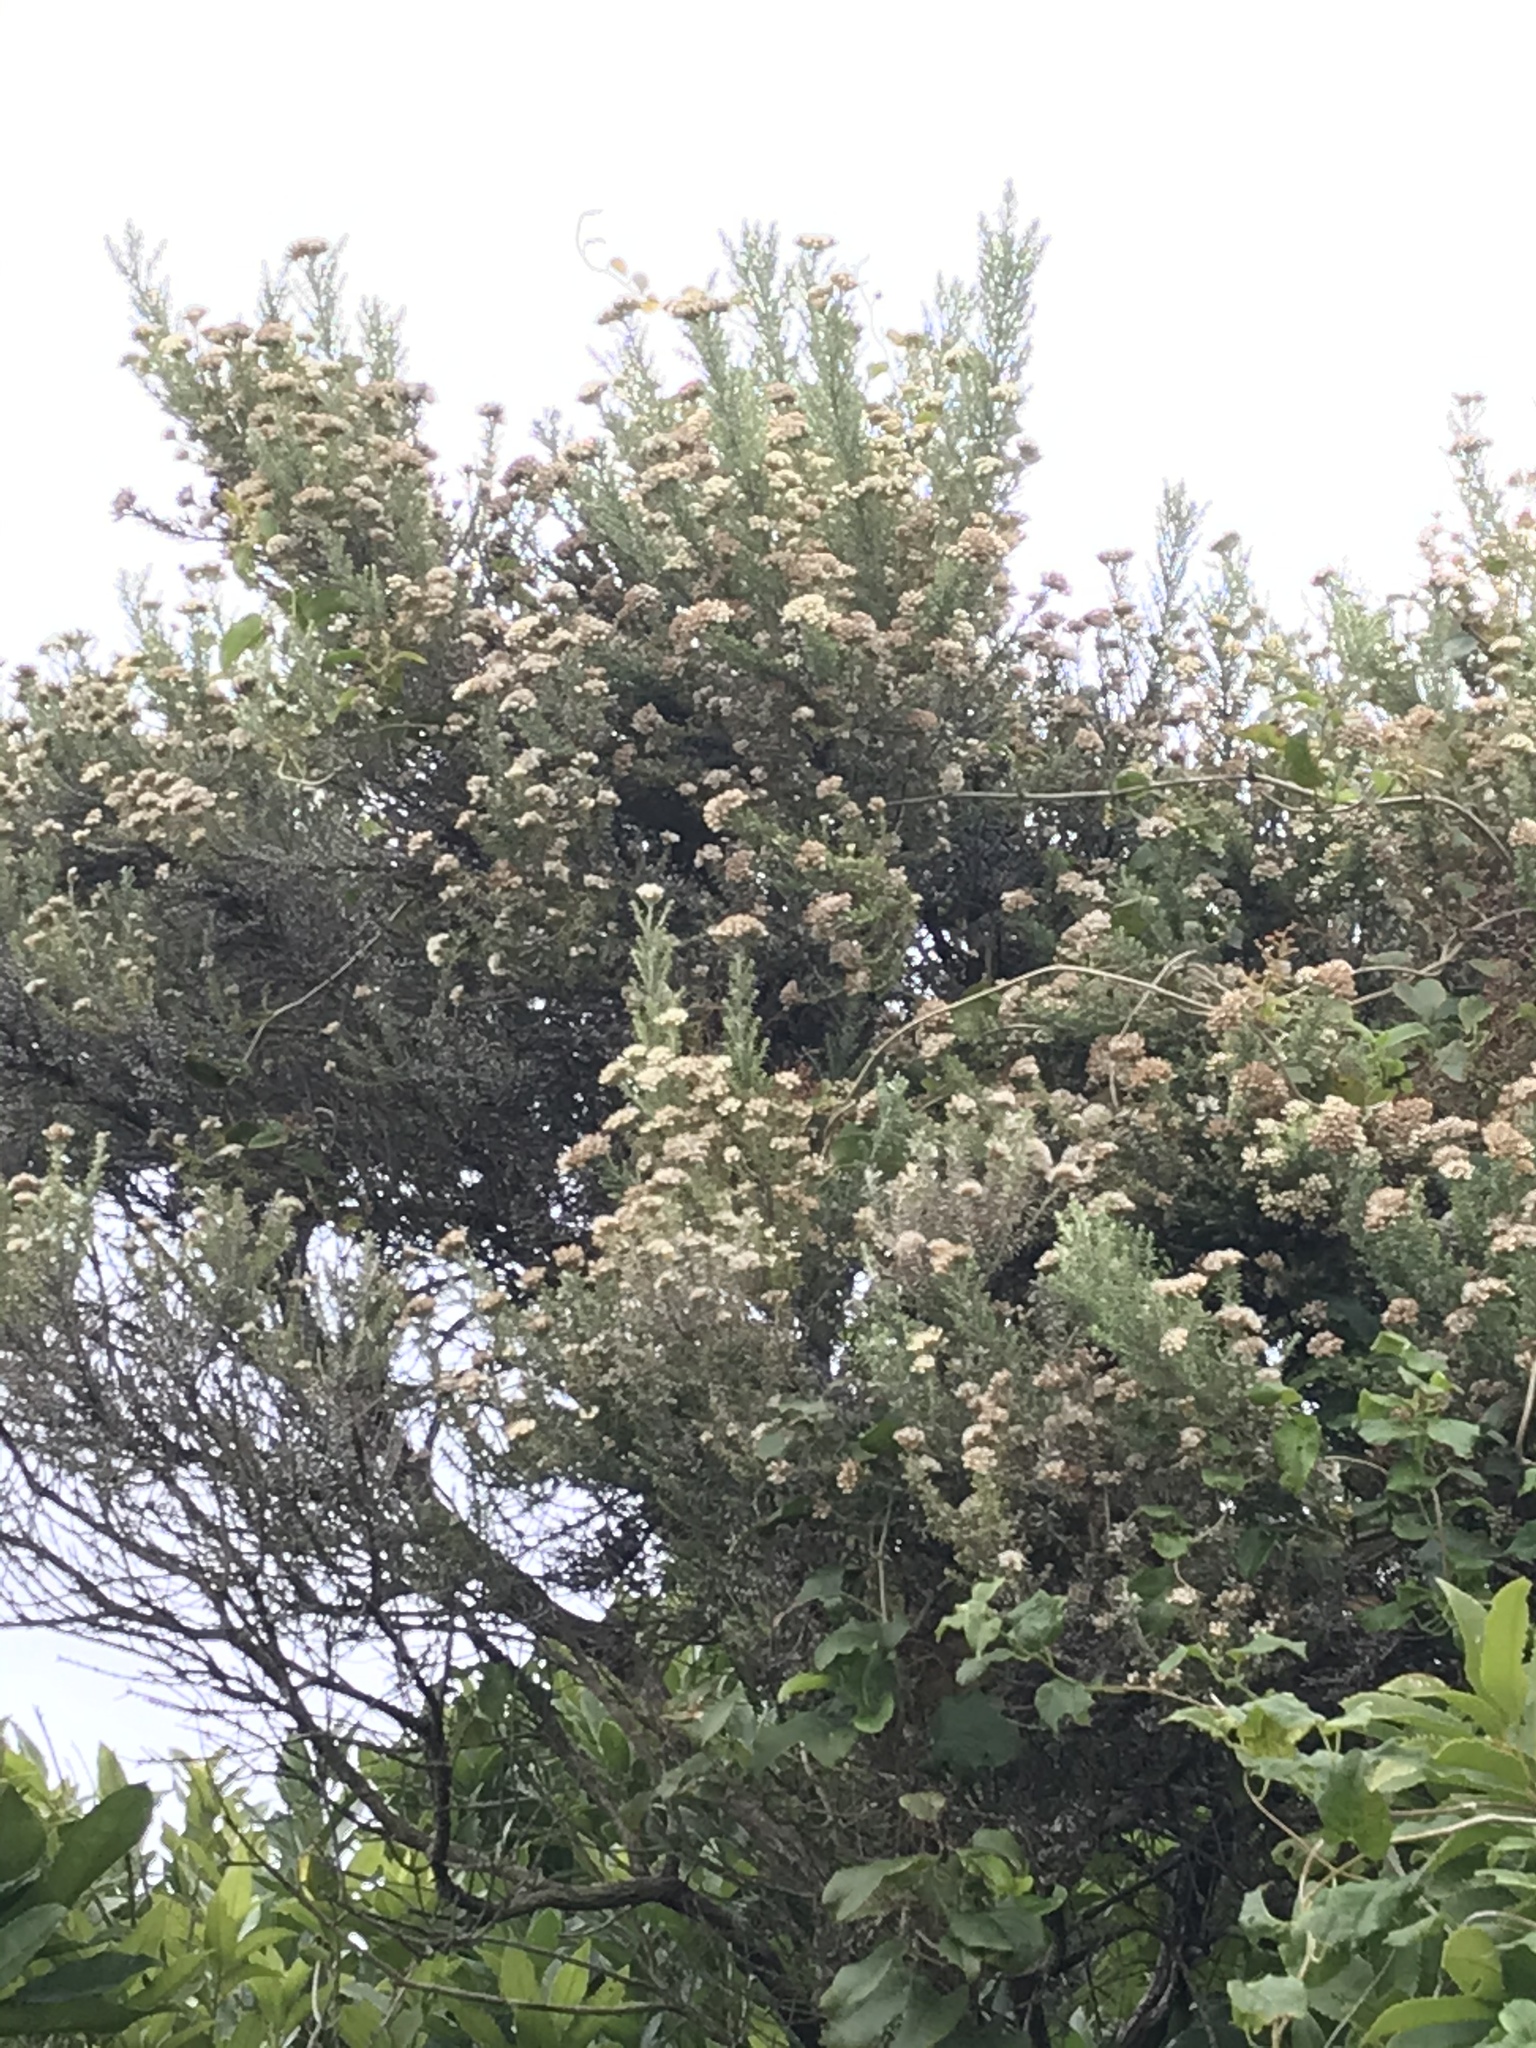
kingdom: Plantae
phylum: Tracheophyta
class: Magnoliopsida
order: Asterales
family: Asteraceae
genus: Ozothamnus
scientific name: Ozothamnus leptophyllus
